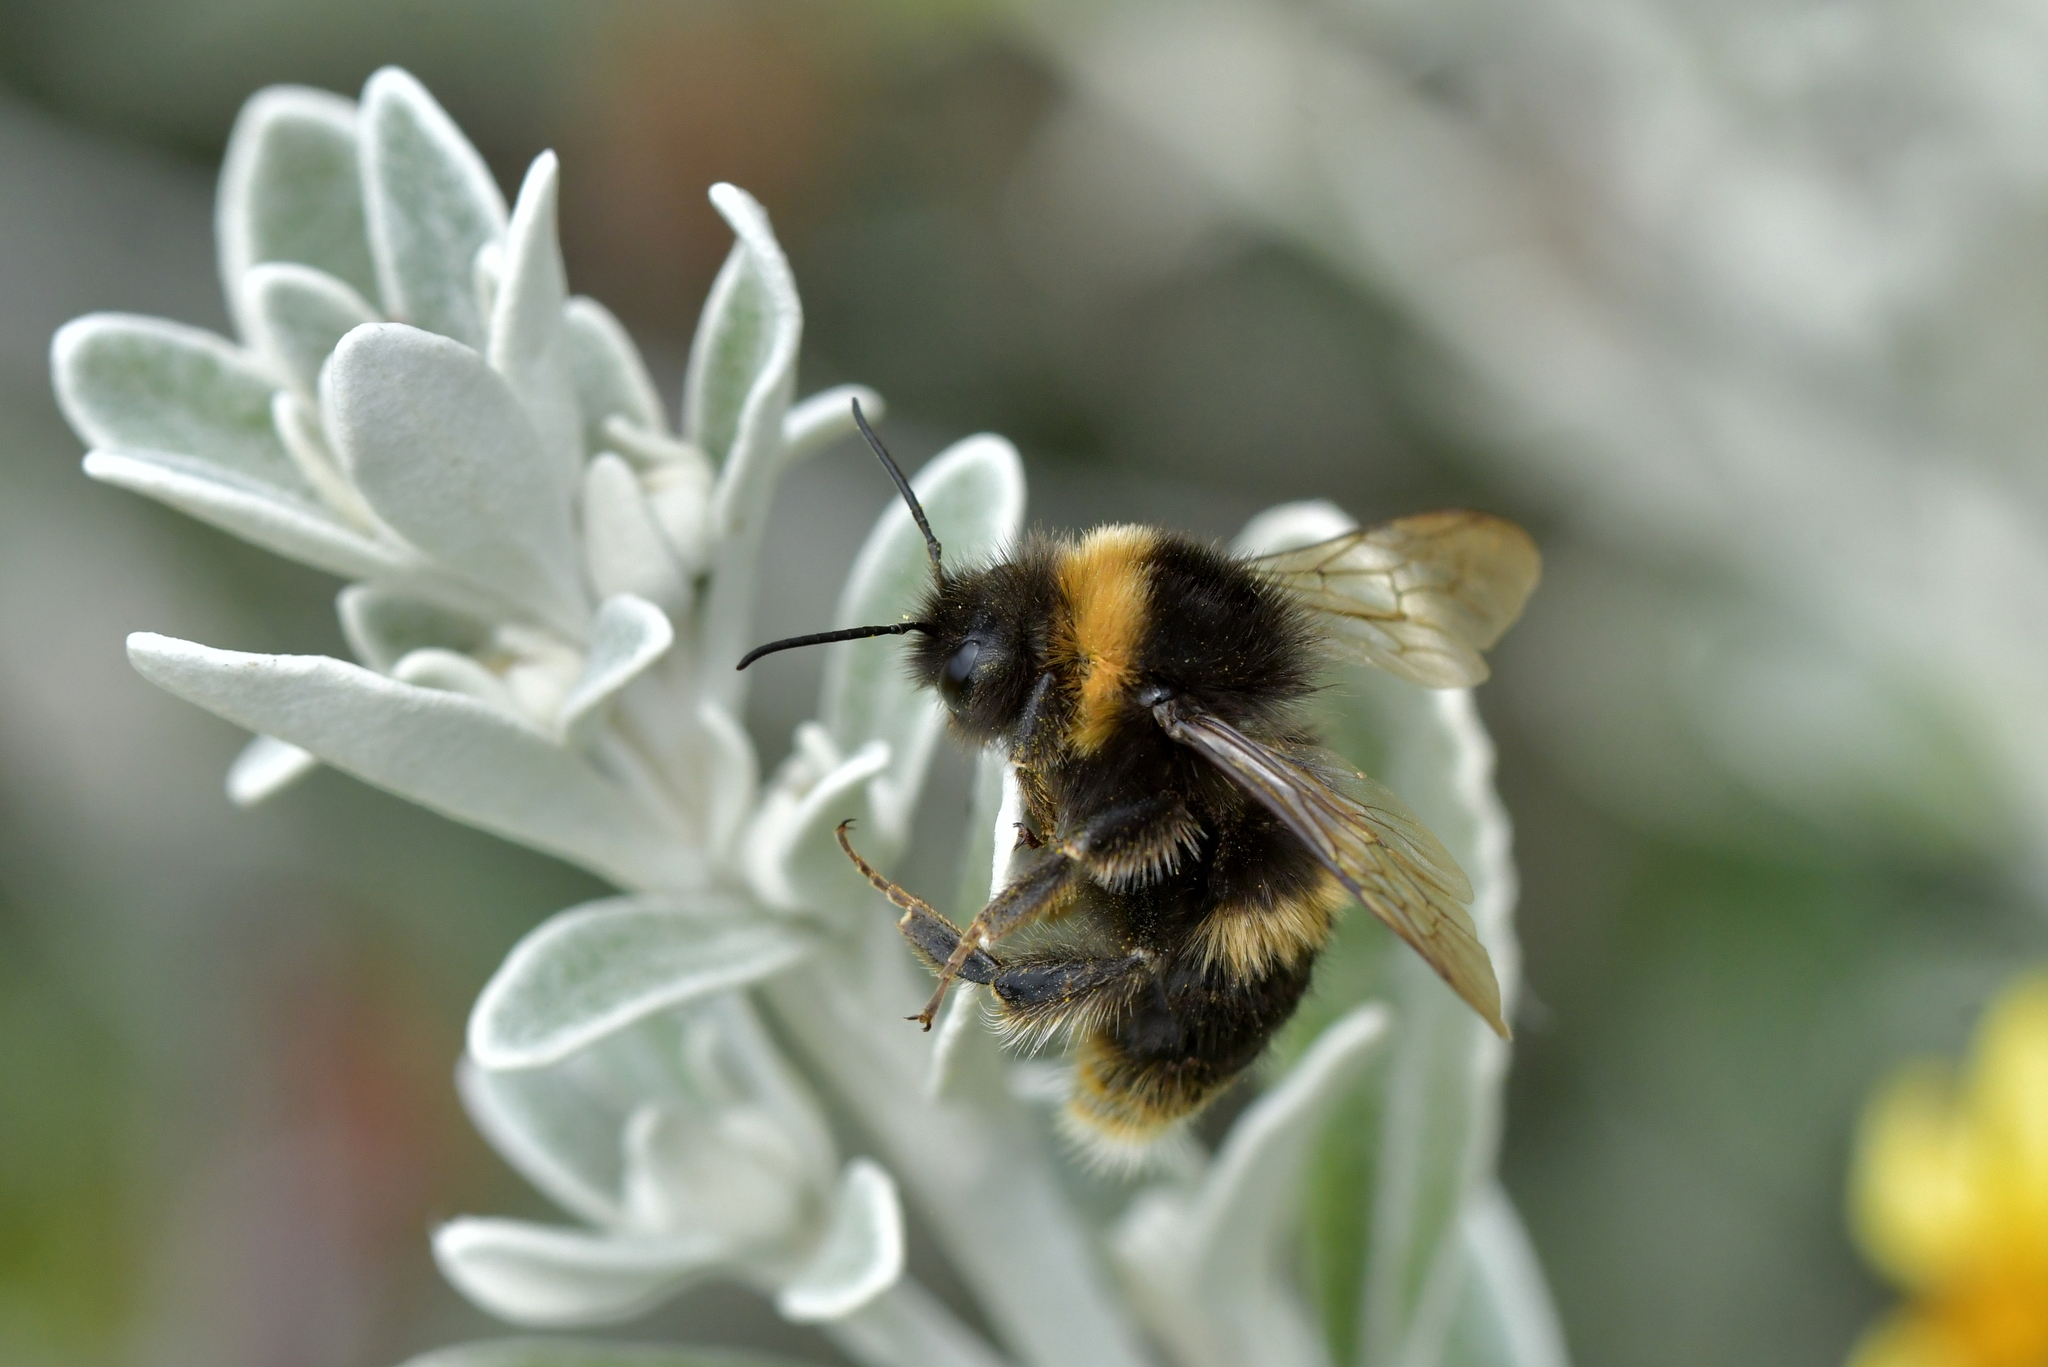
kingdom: Animalia
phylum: Arthropoda
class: Insecta
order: Hymenoptera
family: Apidae
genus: Bombus
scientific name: Bombus terrestris
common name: Buff-tailed bumblebee
